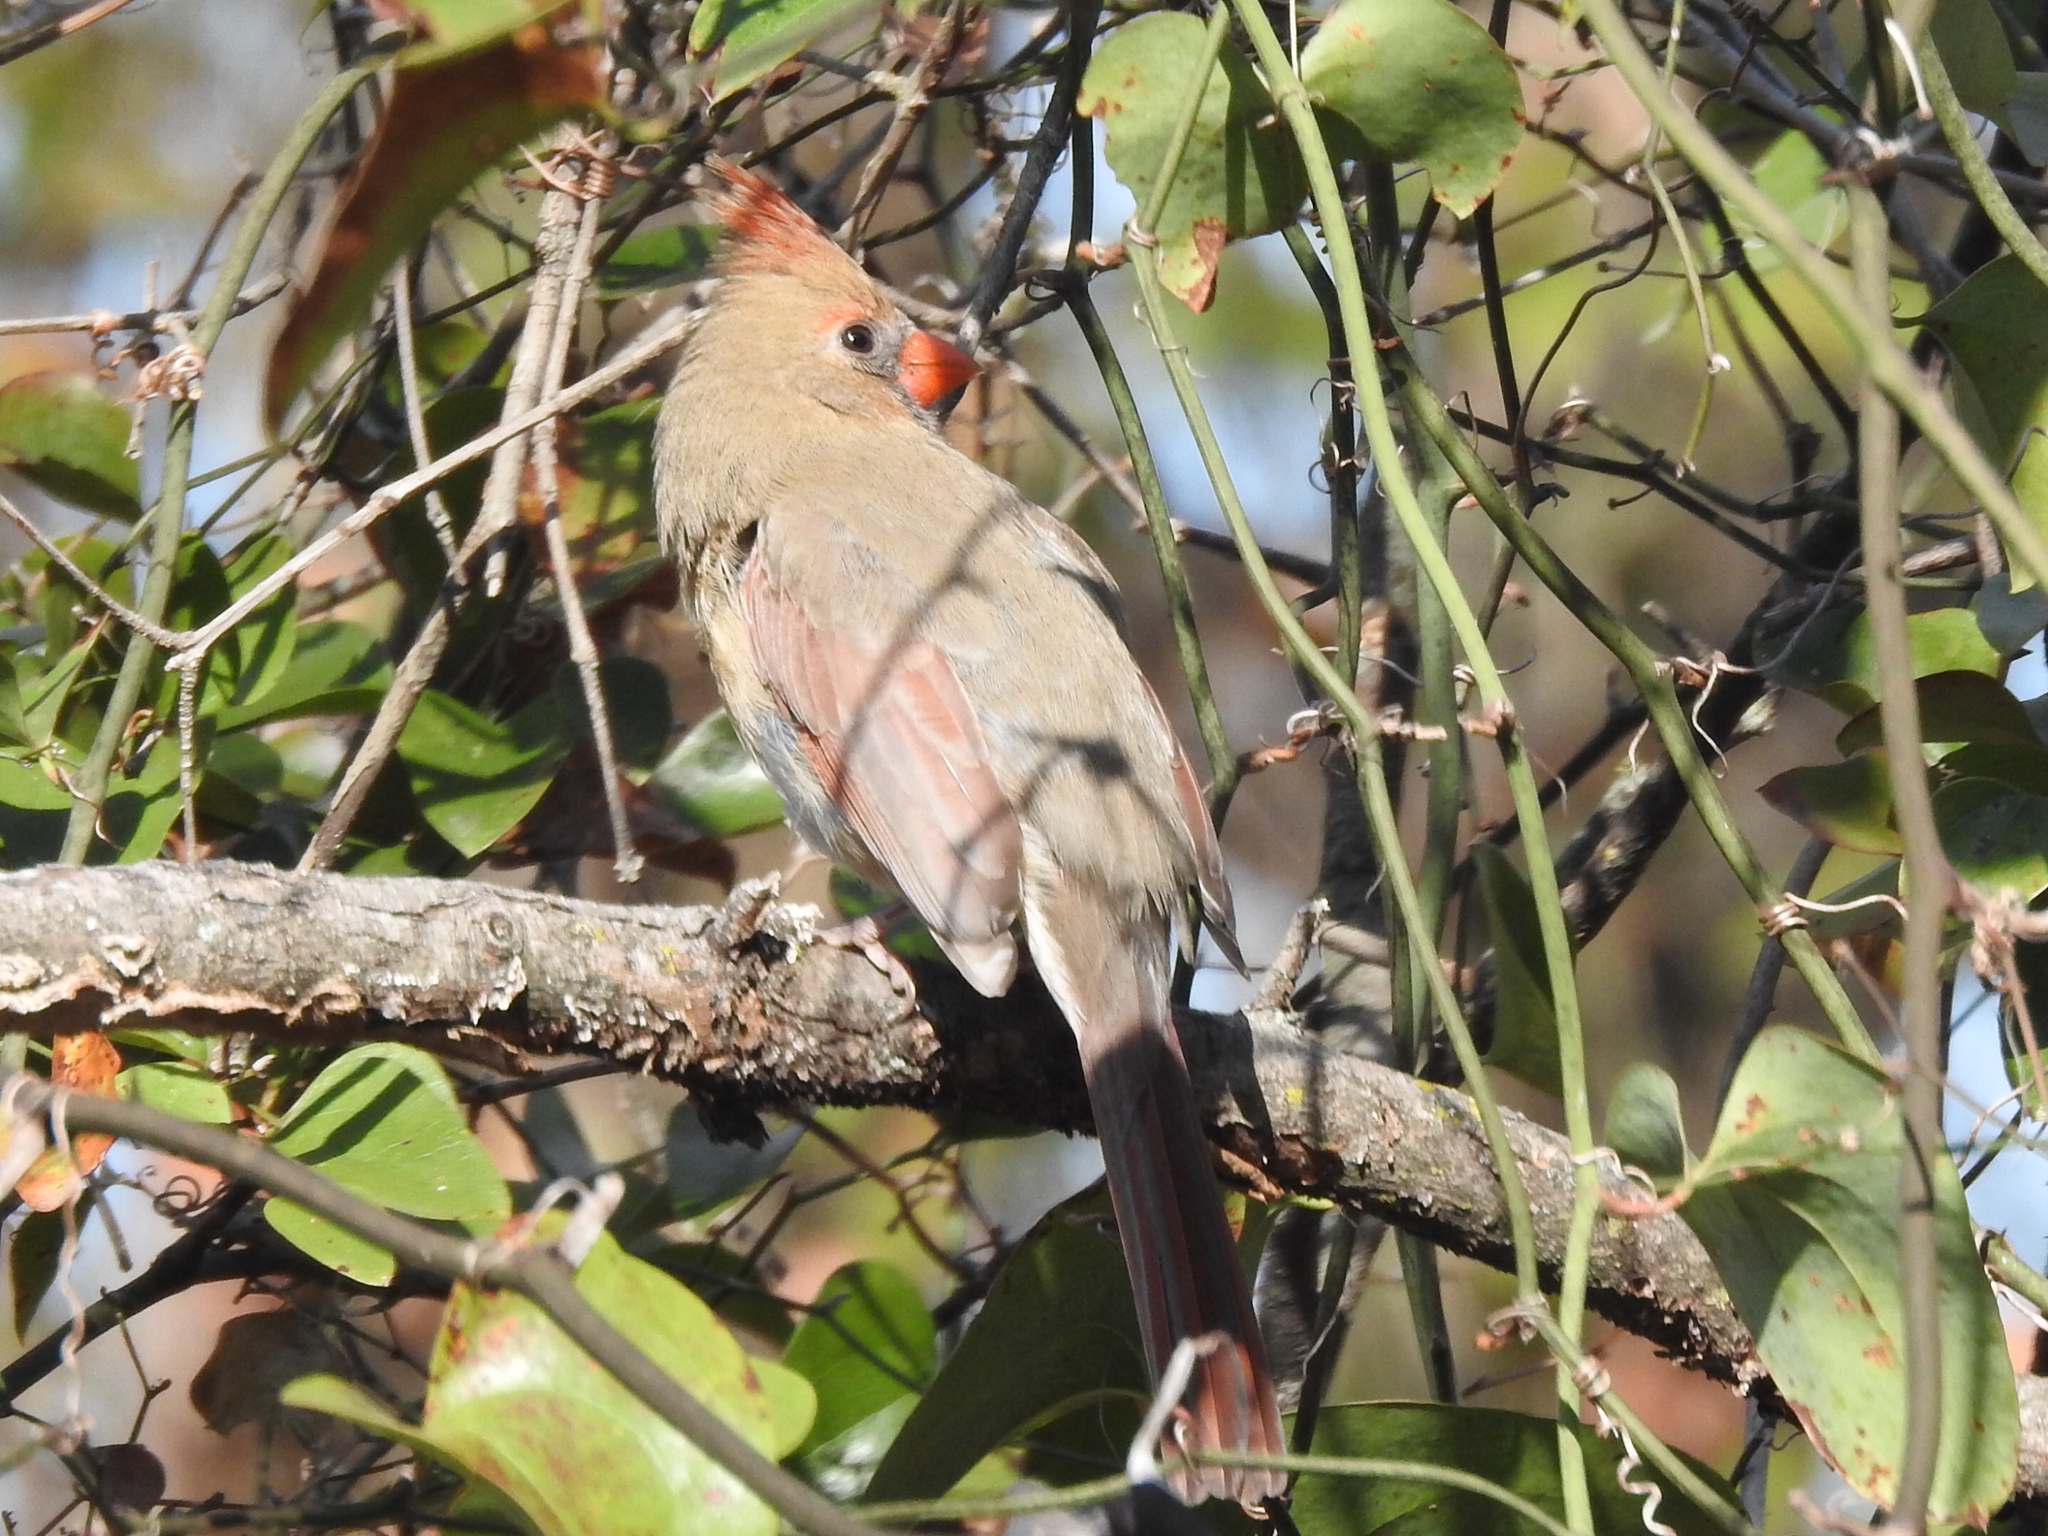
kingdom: Animalia
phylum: Chordata
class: Aves
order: Passeriformes
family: Cardinalidae
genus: Cardinalis
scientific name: Cardinalis cardinalis
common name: Northern cardinal
